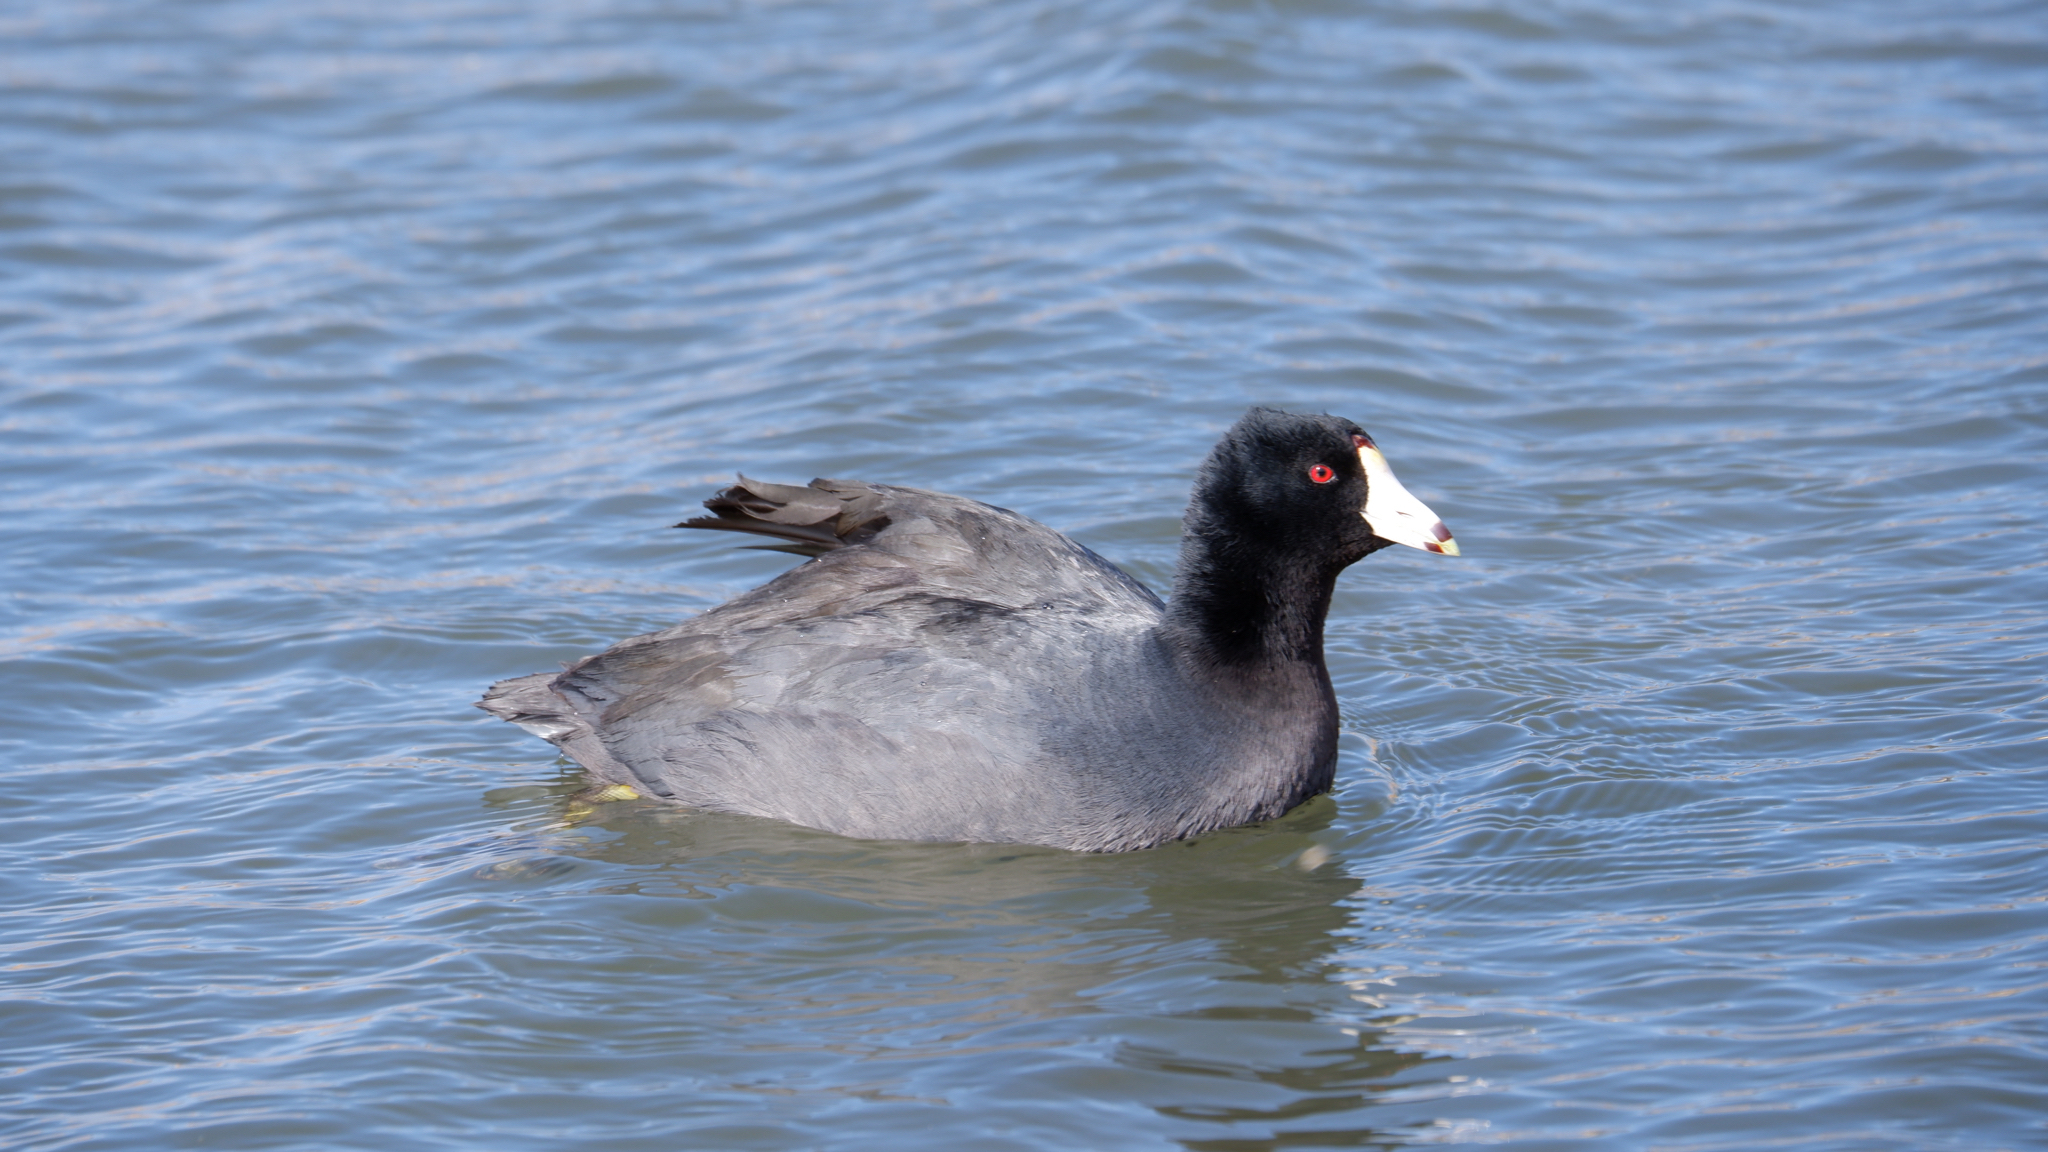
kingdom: Animalia
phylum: Chordata
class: Aves
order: Gruiformes
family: Rallidae
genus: Fulica
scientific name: Fulica americana
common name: American coot
